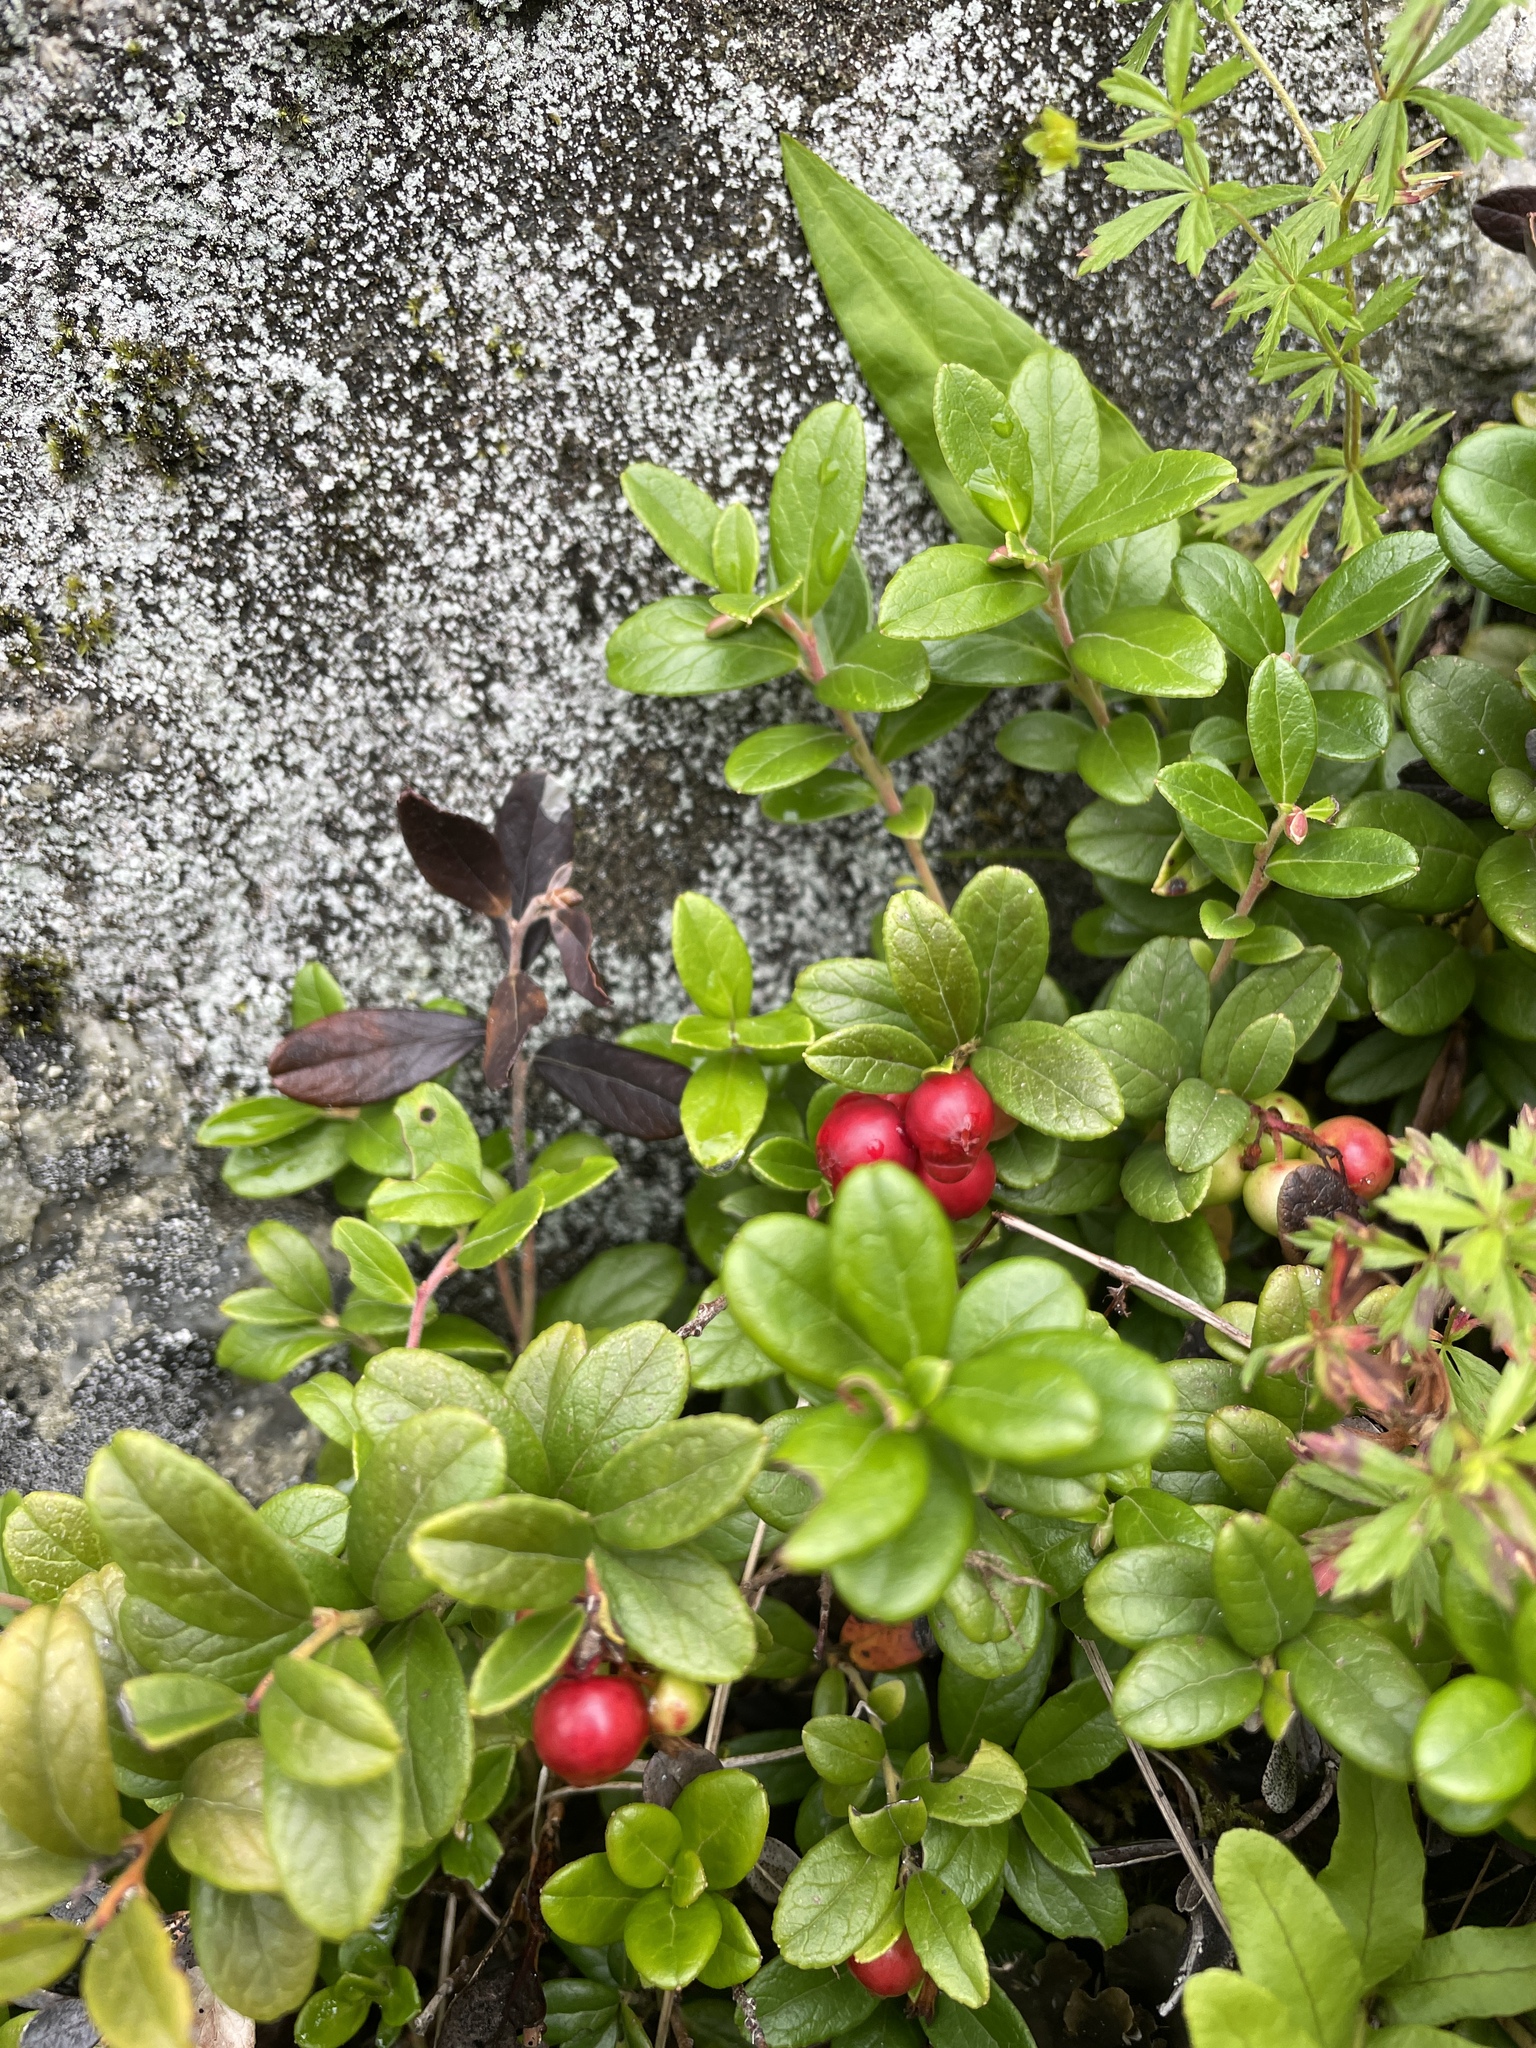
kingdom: Plantae
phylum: Tracheophyta
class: Magnoliopsida
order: Ericales
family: Ericaceae
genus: Vaccinium
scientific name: Vaccinium vitis-idaea
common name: Cowberry
